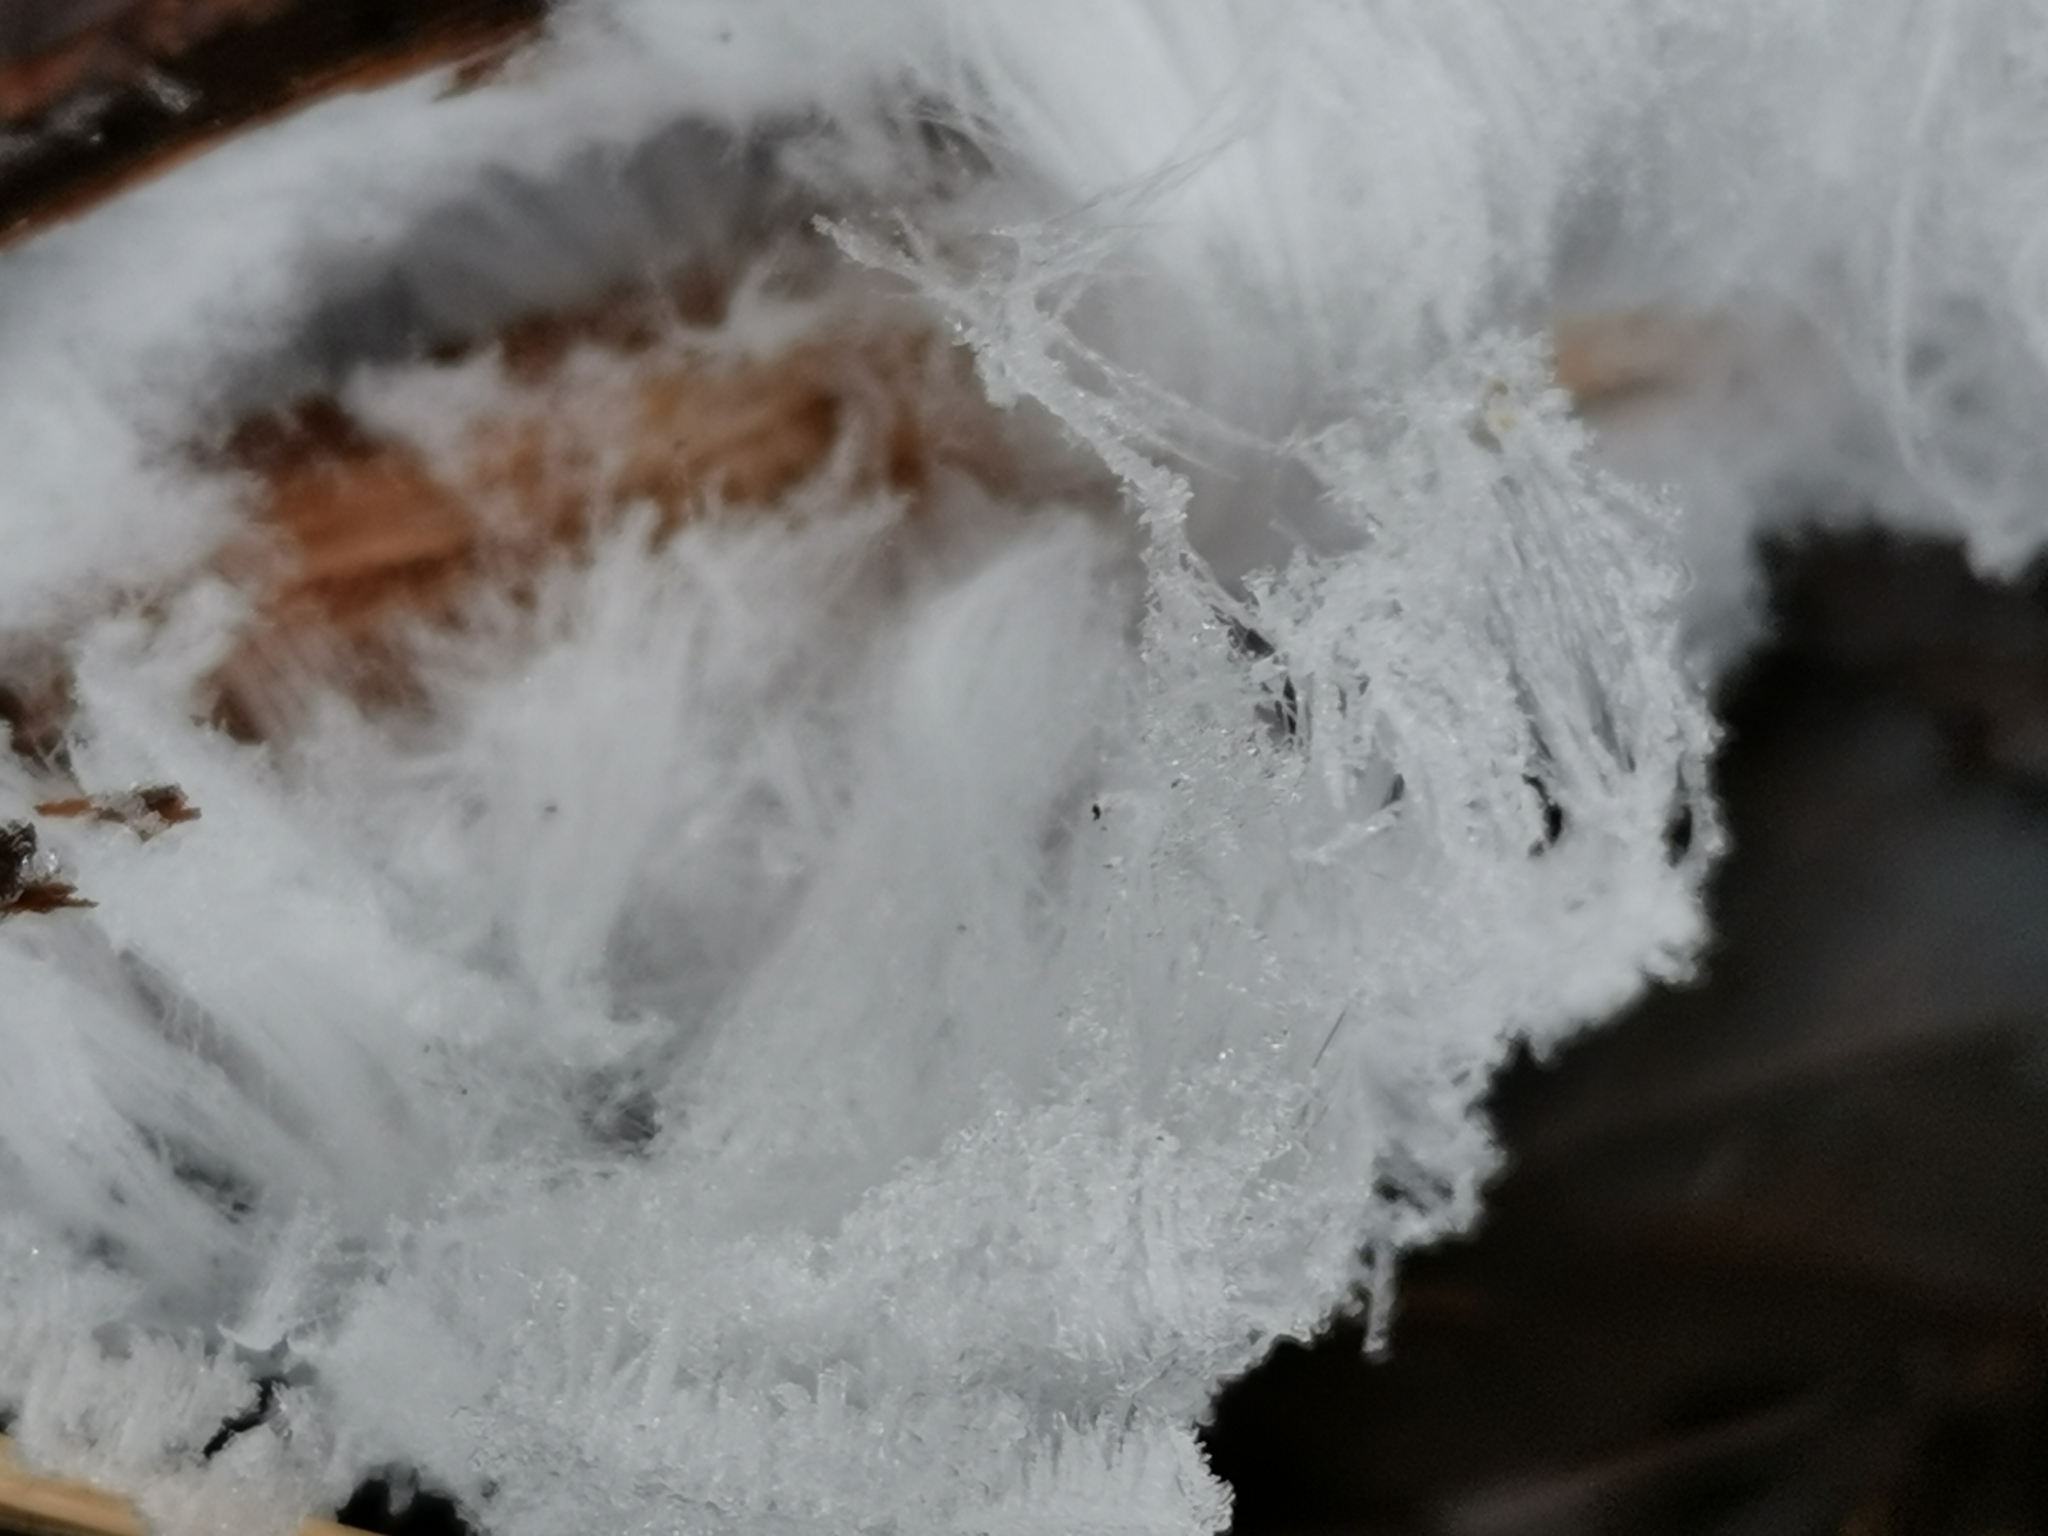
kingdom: Fungi
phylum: Basidiomycota
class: Agaricomycetes
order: Auriculariales
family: Auriculariaceae
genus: Exidiopsis
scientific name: Exidiopsis effusa
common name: Hair ice crust
